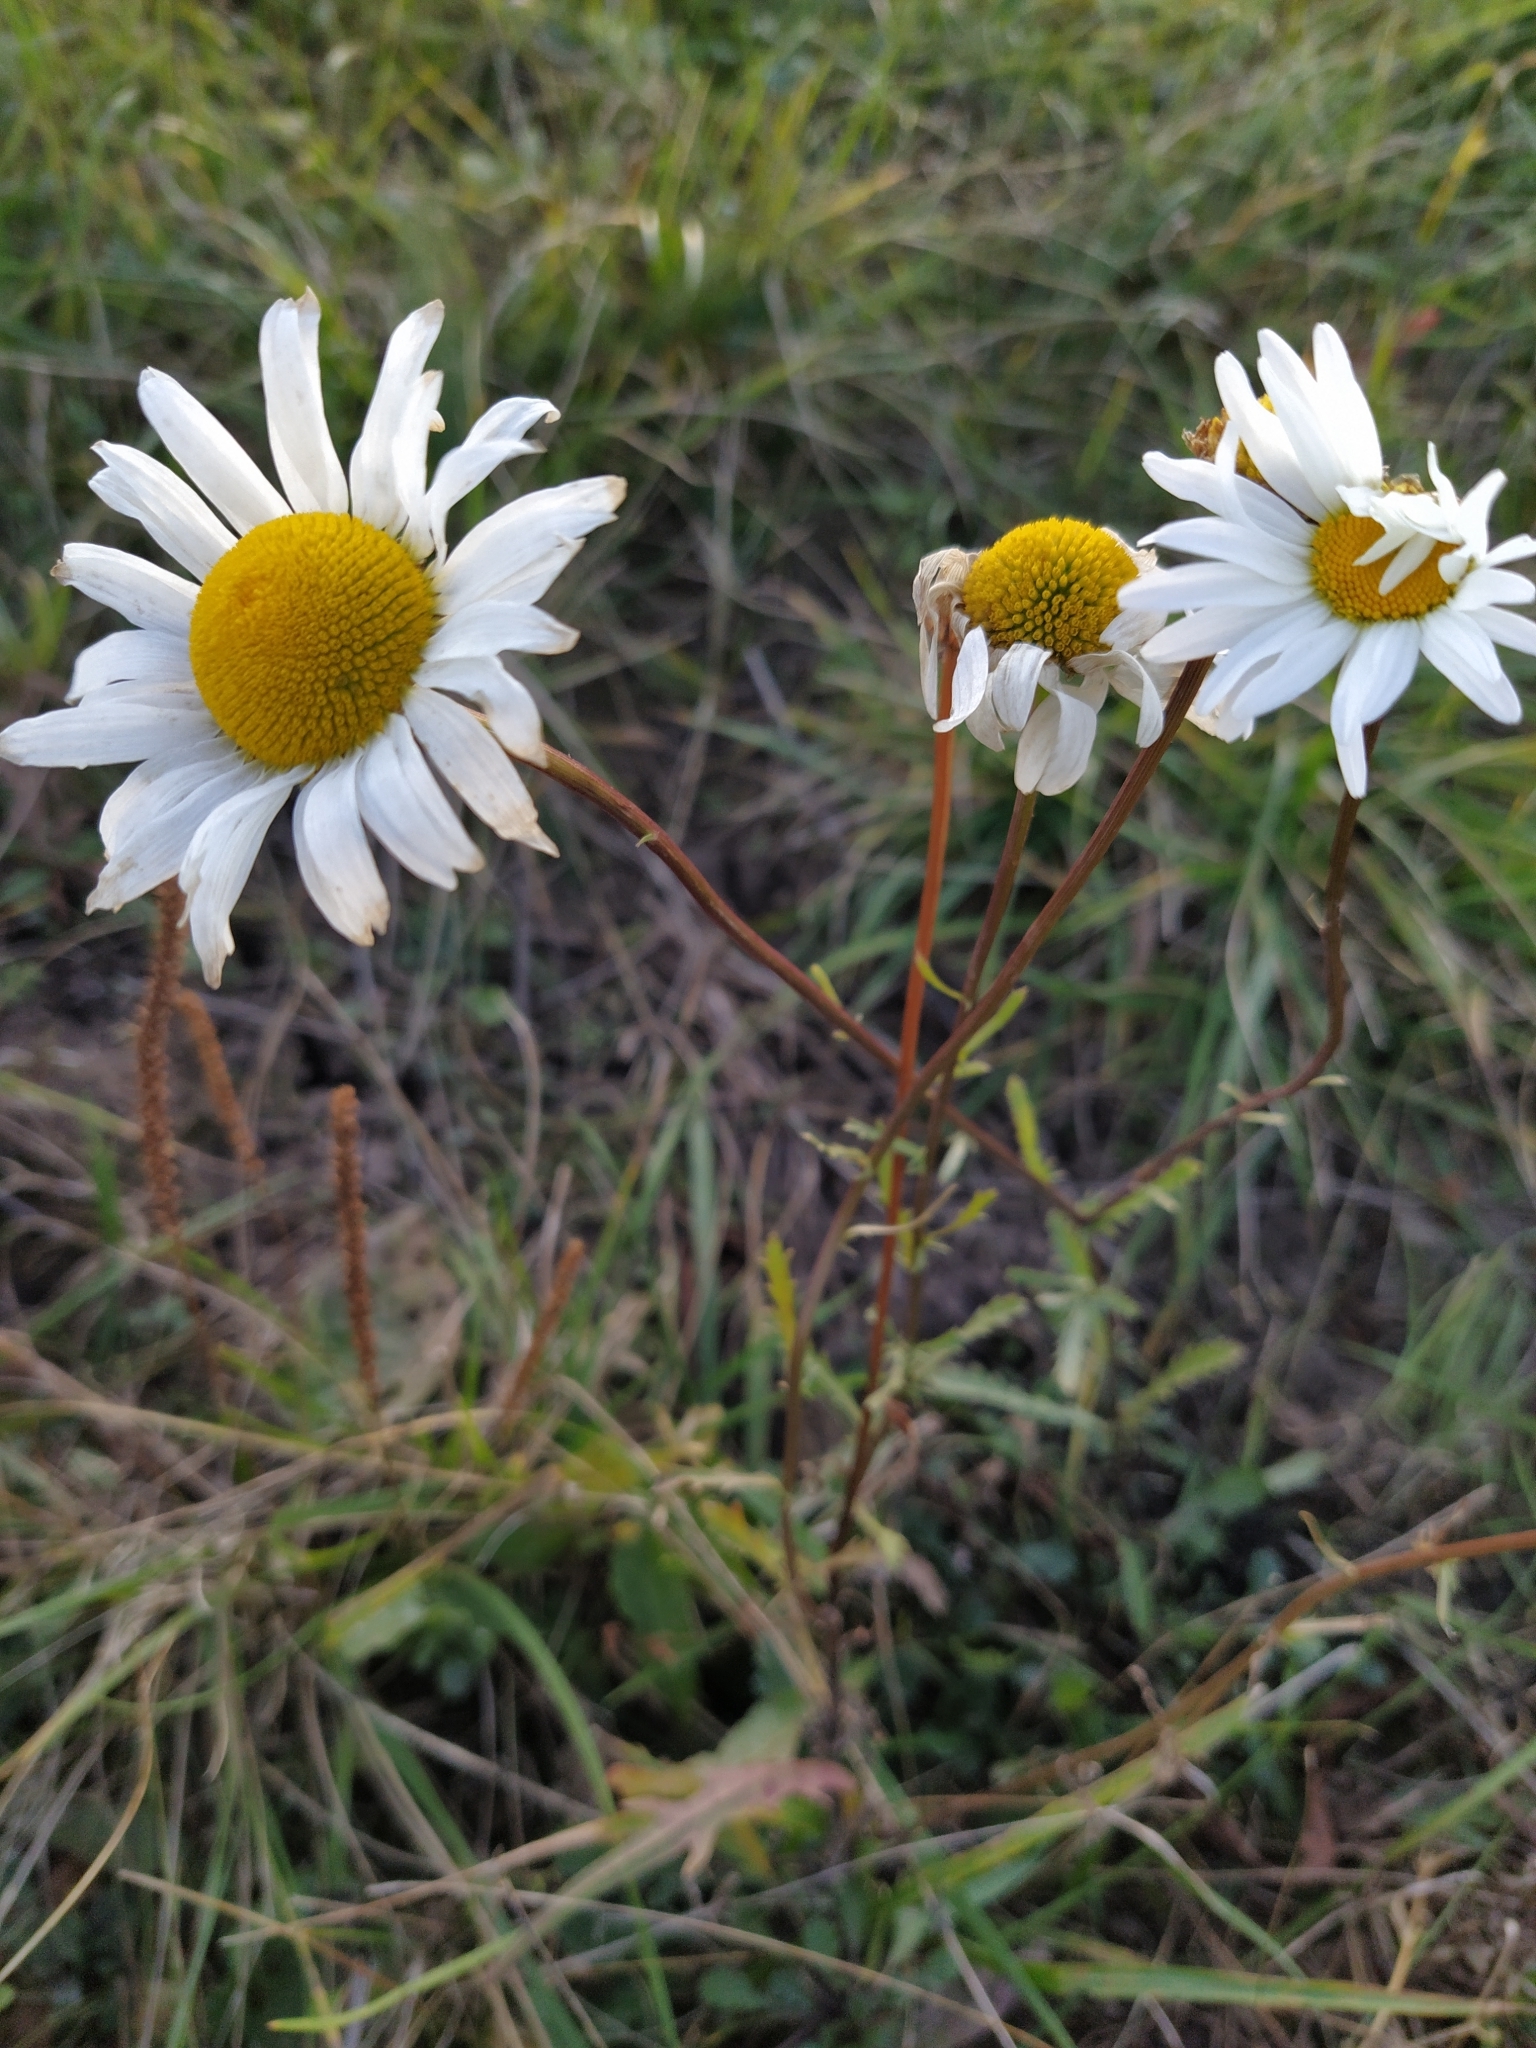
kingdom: Plantae
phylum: Tracheophyta
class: Magnoliopsida
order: Asterales
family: Asteraceae
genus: Leucanthemum
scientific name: Leucanthemum vulgare
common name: Oxeye daisy
